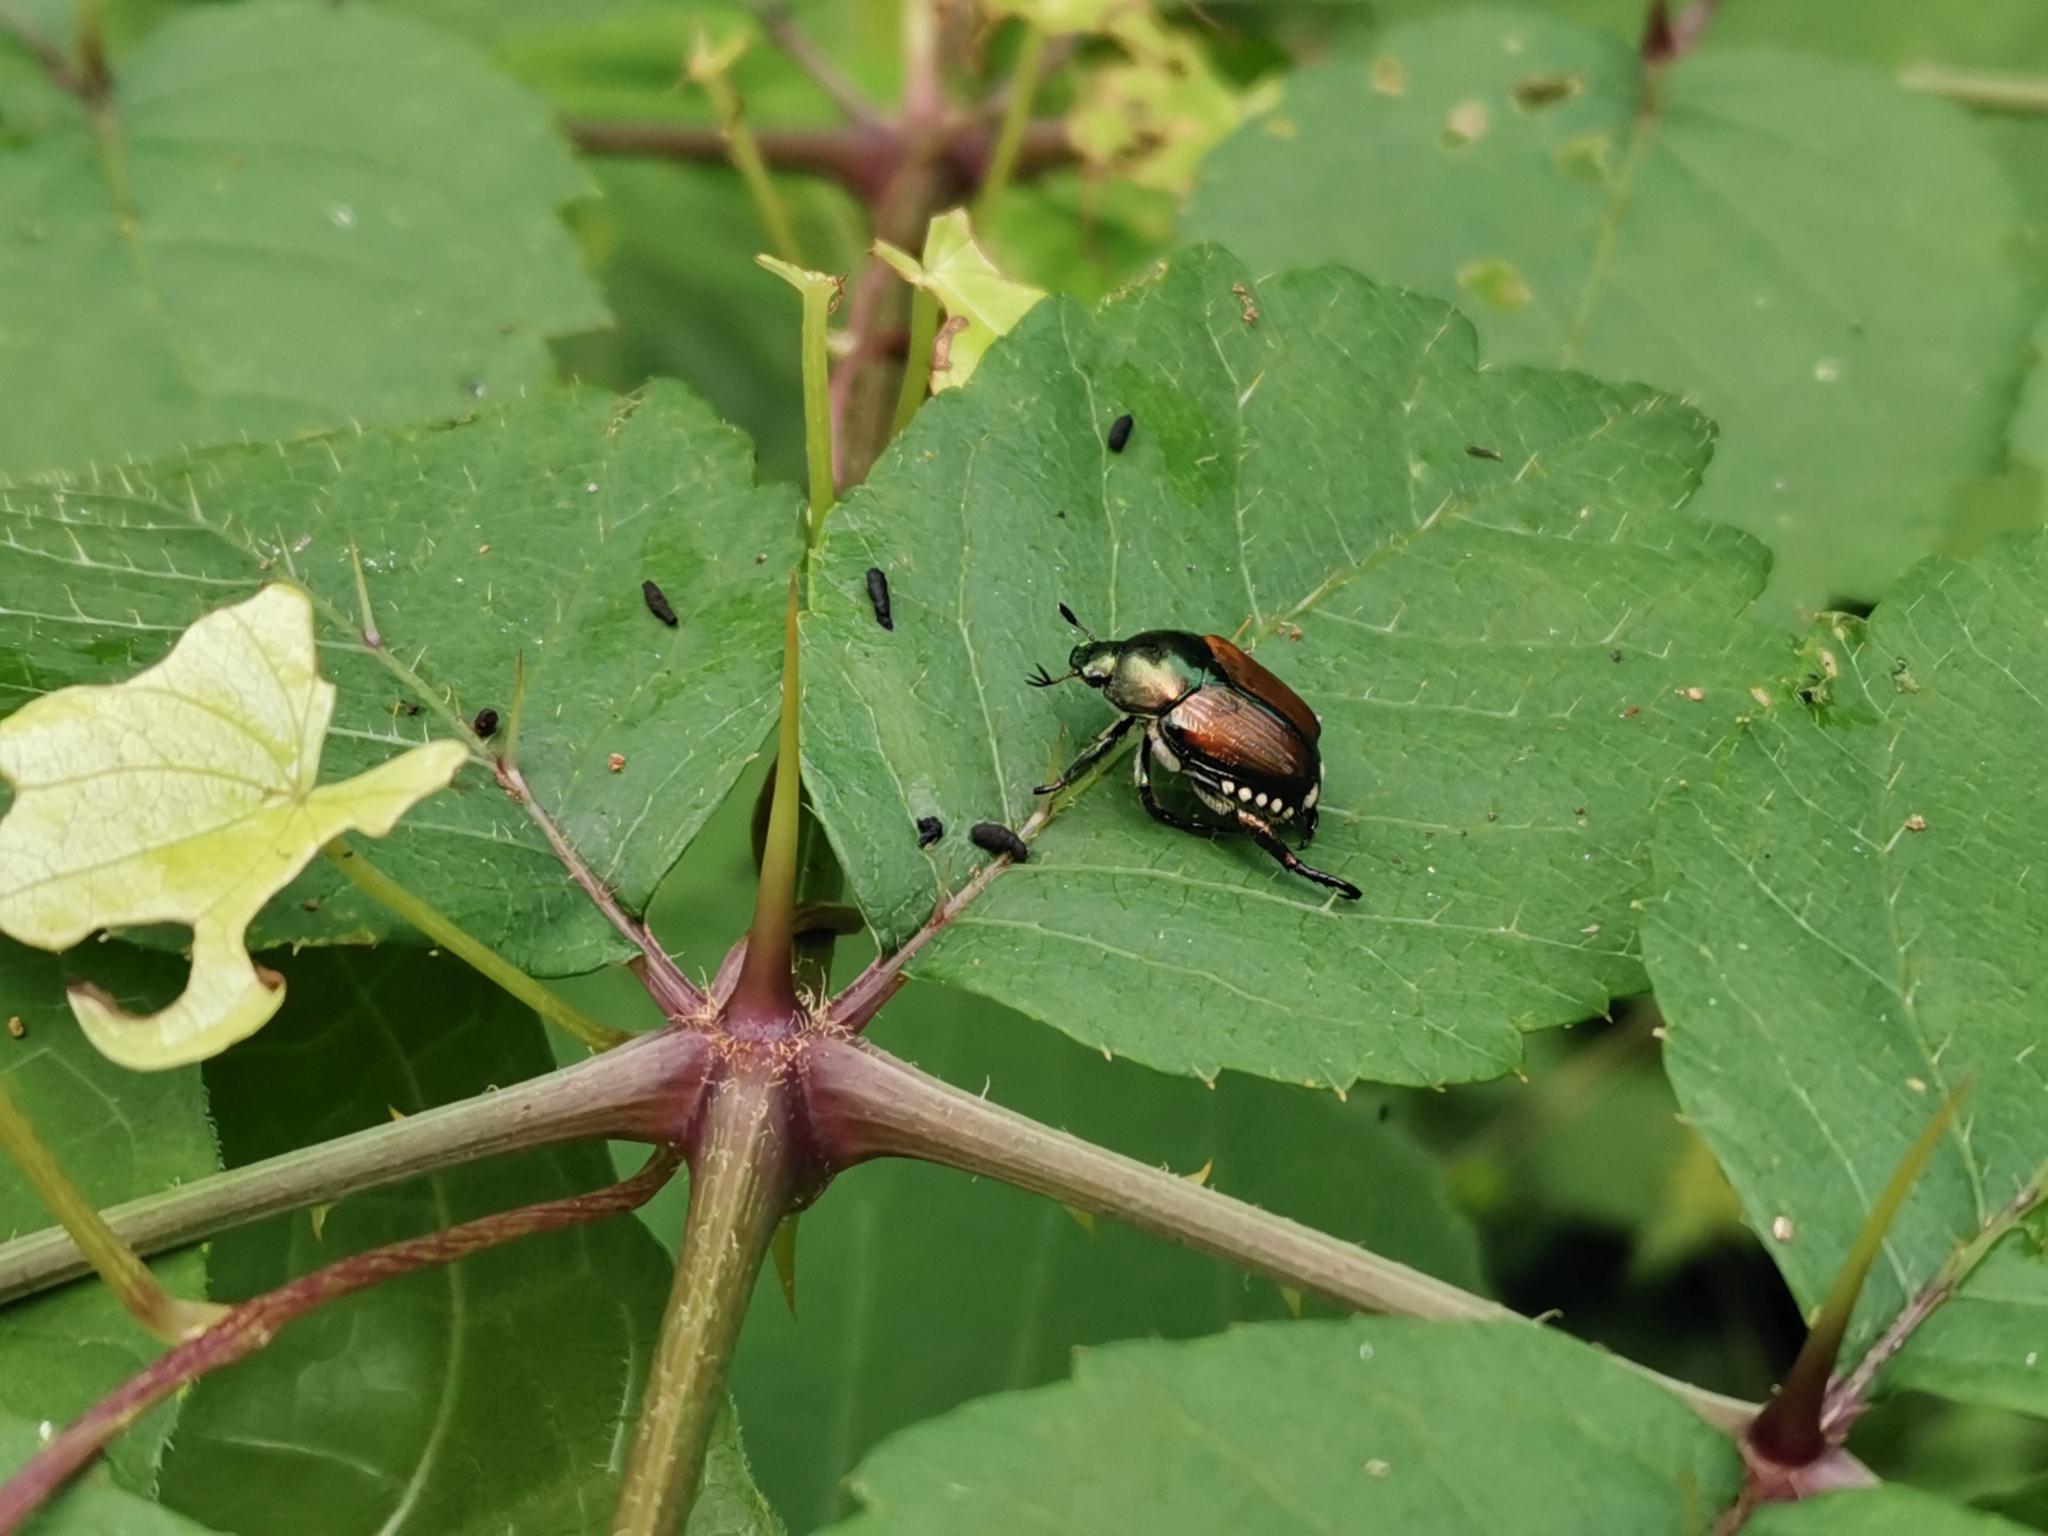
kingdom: Animalia
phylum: Arthropoda
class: Insecta
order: Coleoptera
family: Scarabaeidae
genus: Popillia
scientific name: Popillia japonica
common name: Japanese beetle
